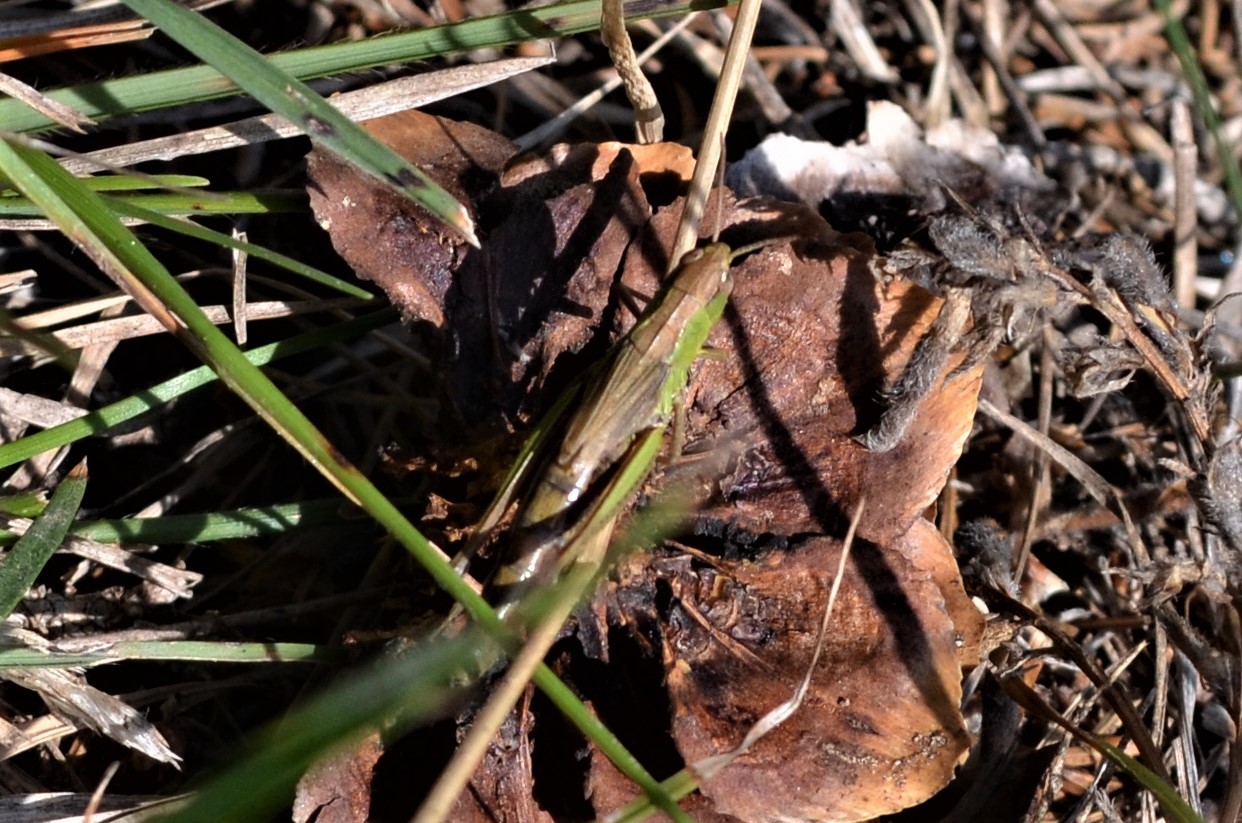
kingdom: Animalia
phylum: Arthropoda
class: Insecta
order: Orthoptera
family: Acrididae
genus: Pseudochorthippus
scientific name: Pseudochorthippus parallelus
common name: Meadow grasshopper
